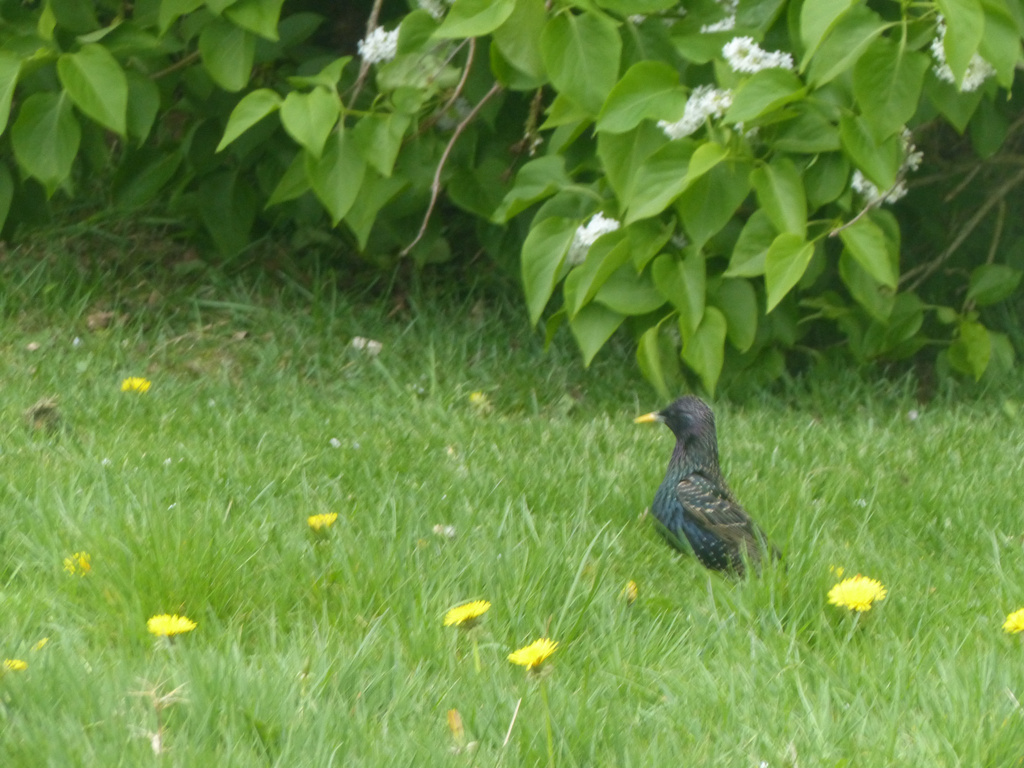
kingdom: Animalia
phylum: Chordata
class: Aves
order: Passeriformes
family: Sturnidae
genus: Sturnus
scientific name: Sturnus vulgaris
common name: Common starling
